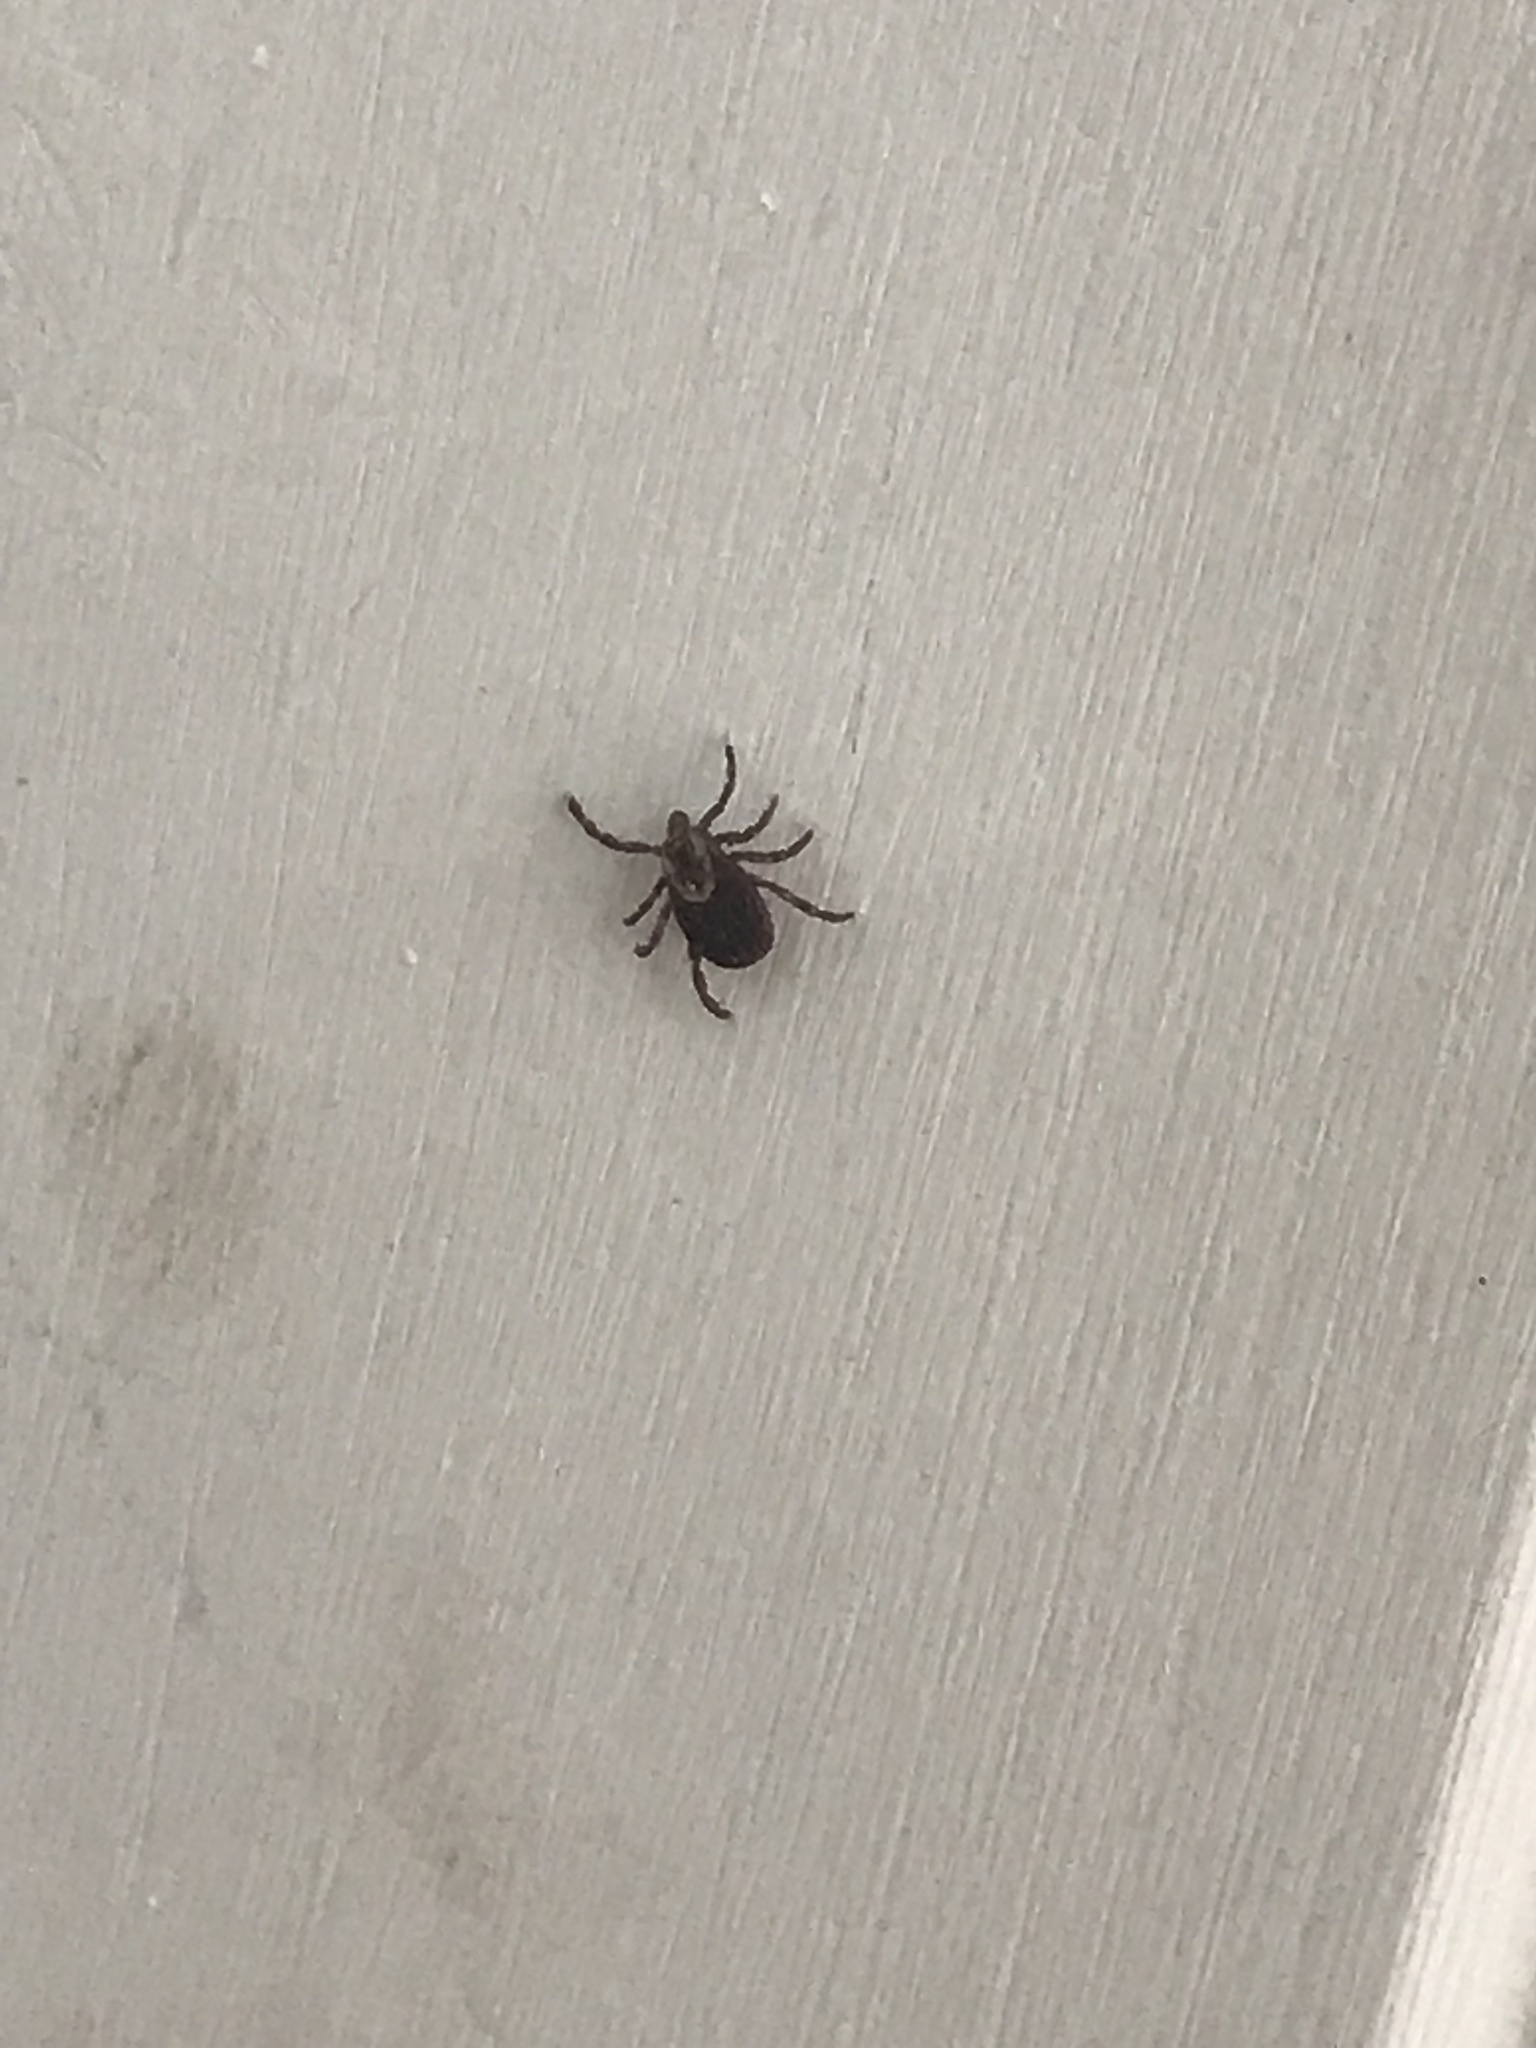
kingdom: Animalia
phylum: Arthropoda
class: Arachnida
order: Ixodida
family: Ixodidae
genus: Dermacentor
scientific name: Dermacentor variabilis
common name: American dog tick
